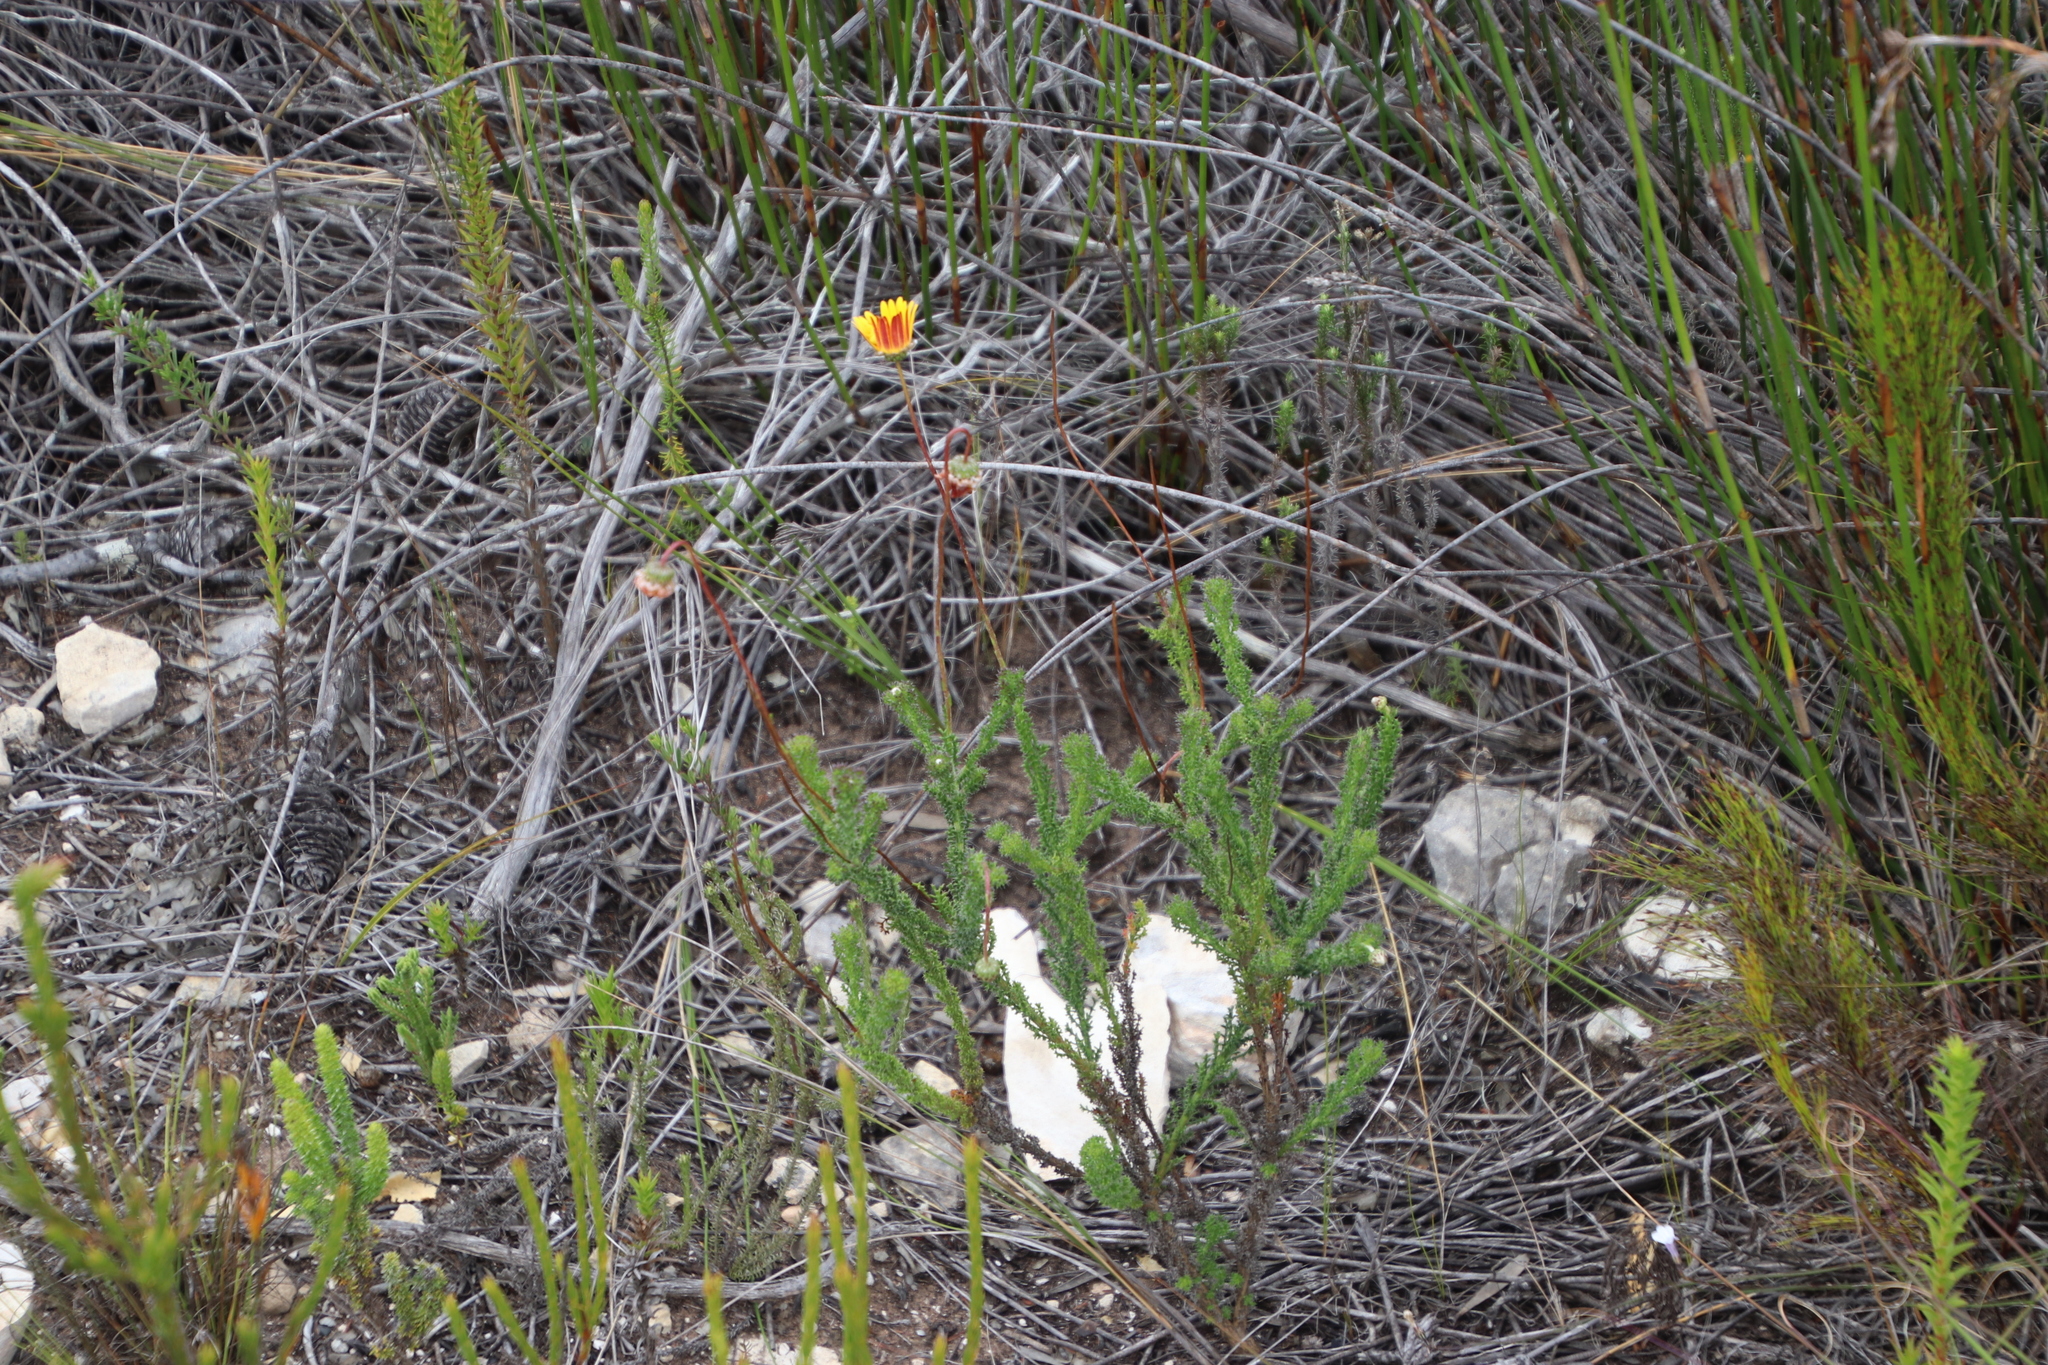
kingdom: Plantae
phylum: Tracheophyta
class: Magnoliopsida
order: Asterales
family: Asteraceae
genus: Ursinia
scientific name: Ursinia dentata
